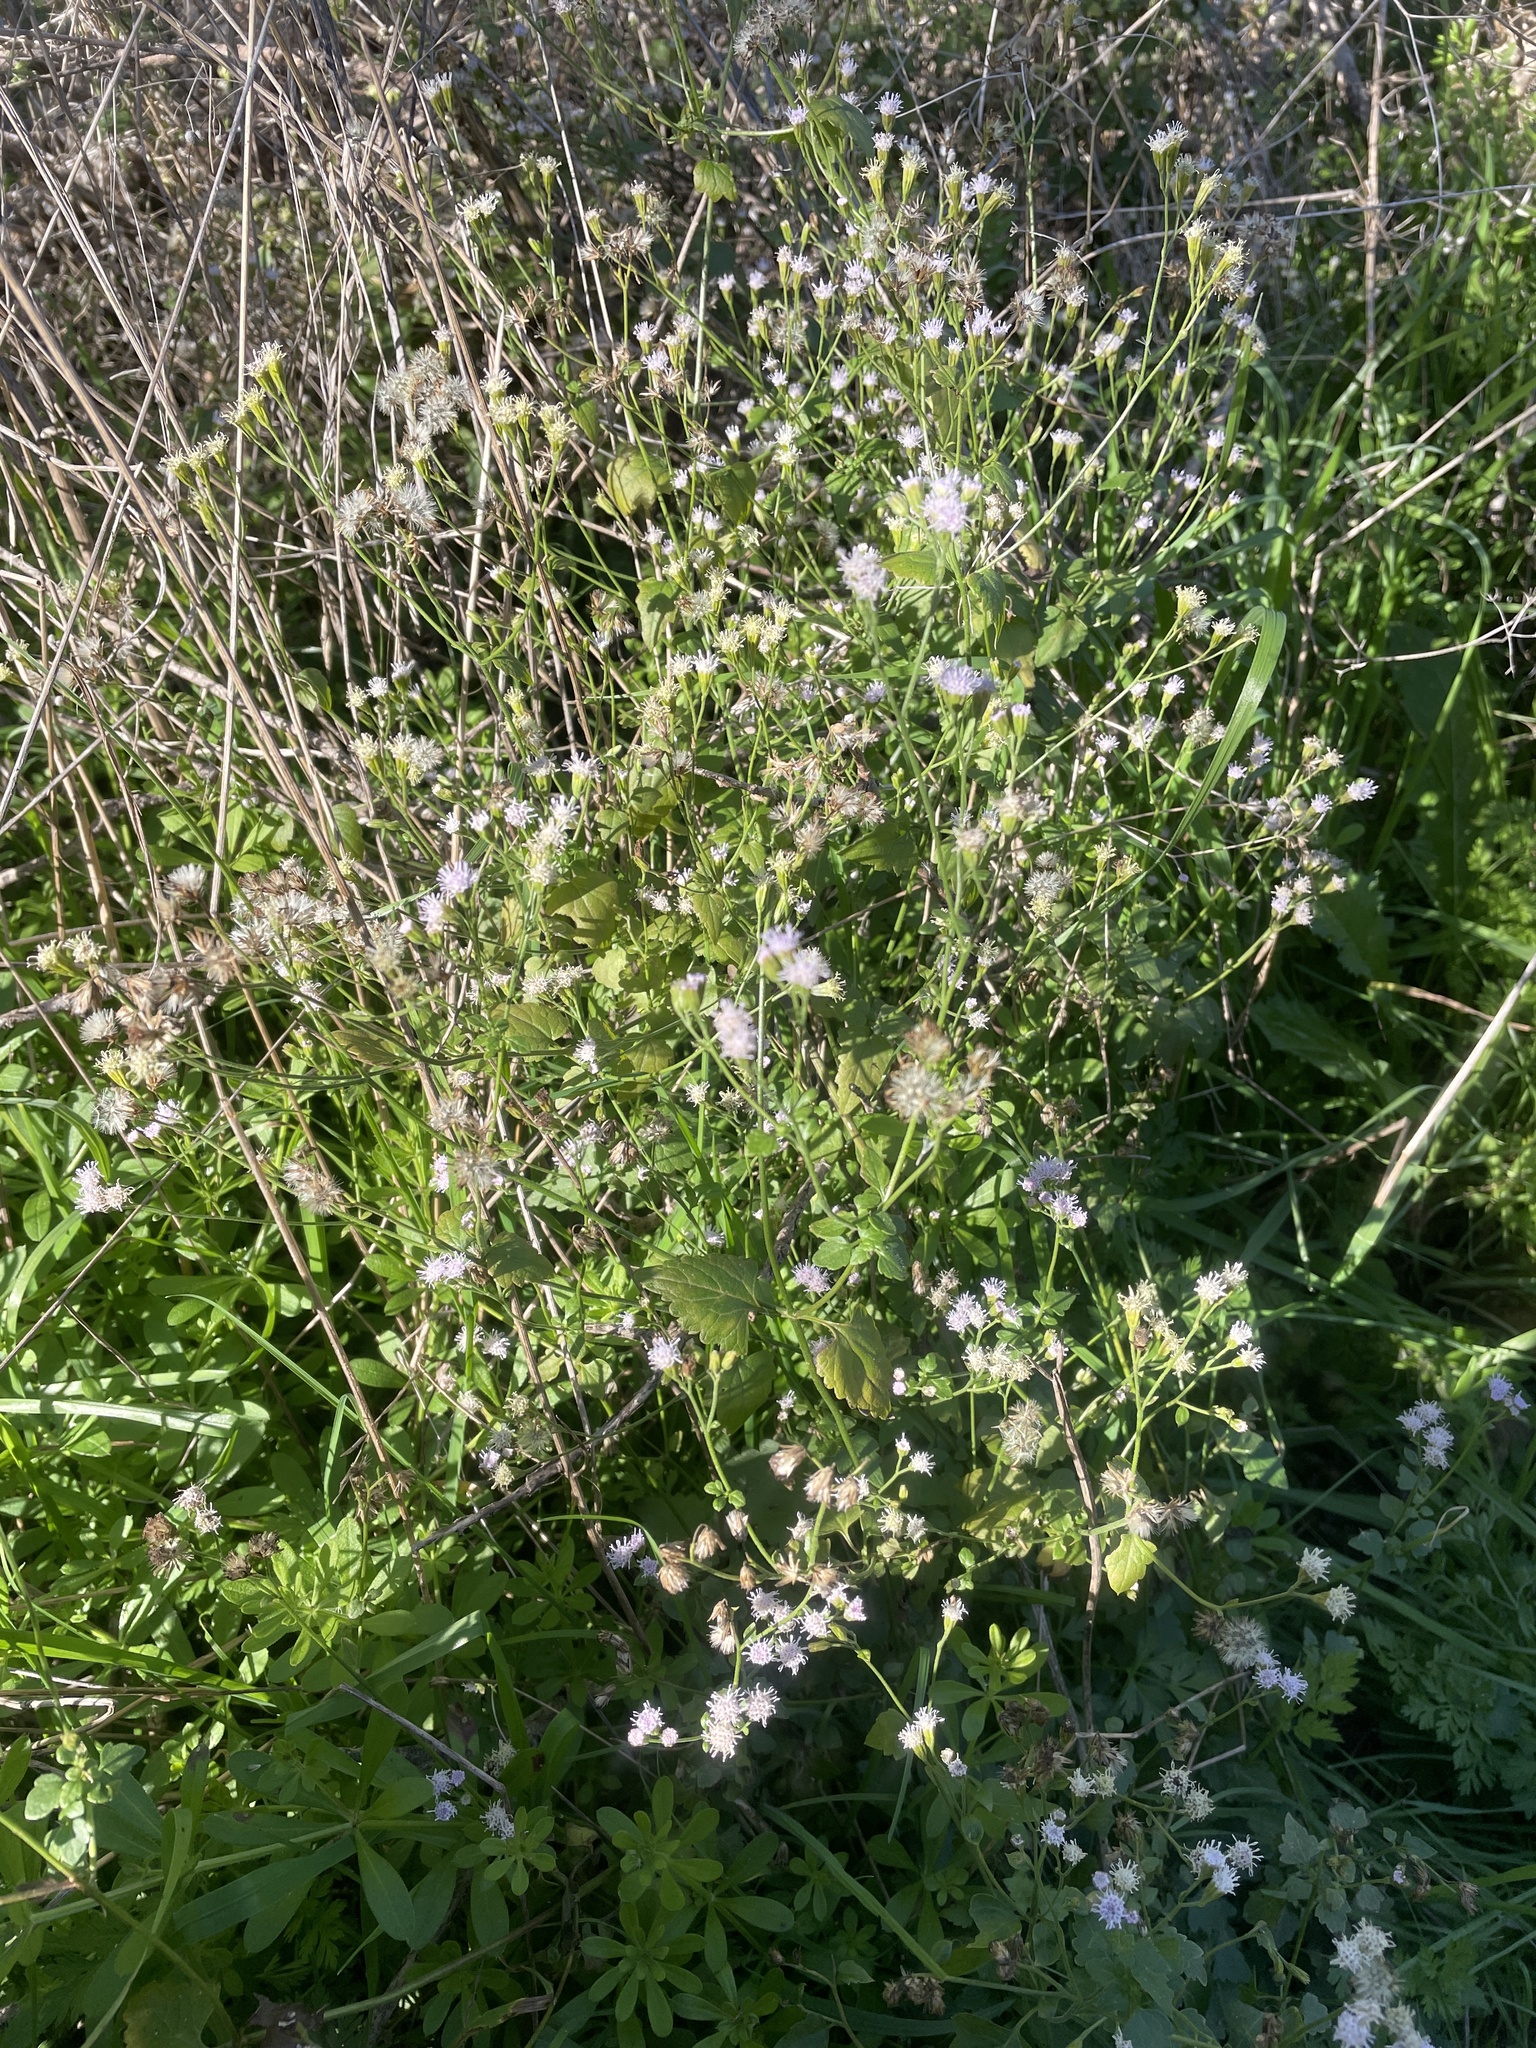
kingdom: Plantae
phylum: Tracheophyta
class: Magnoliopsida
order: Asterales
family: Asteraceae
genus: Fleischmannia
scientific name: Fleischmannia incarnata
